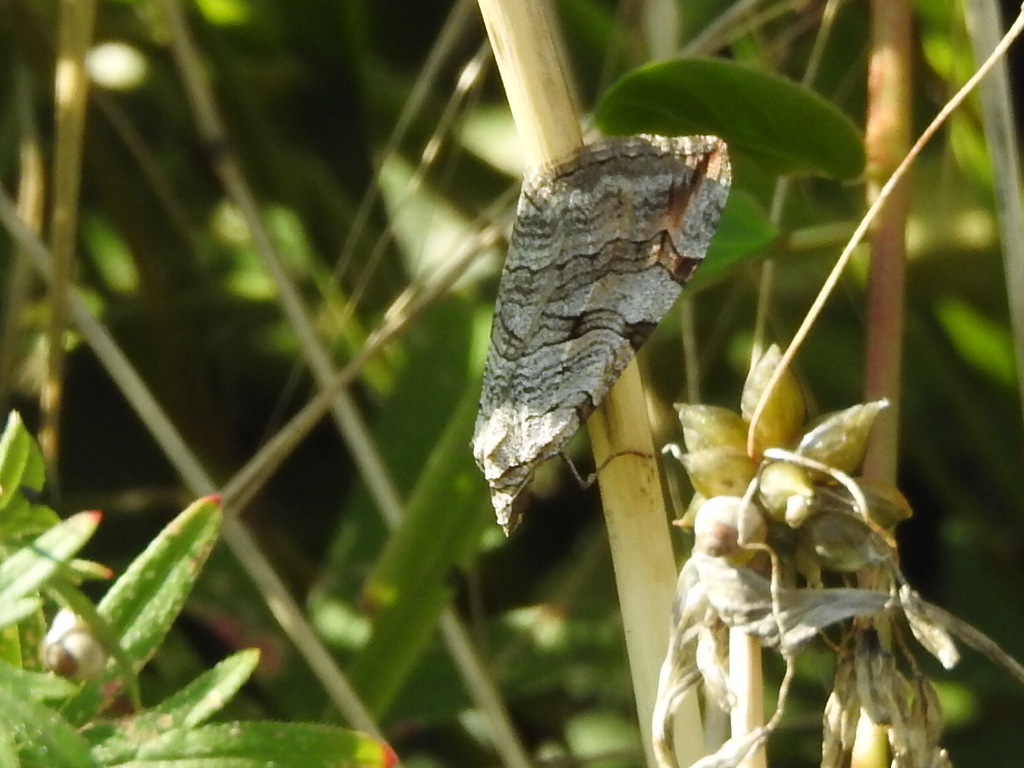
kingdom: Animalia
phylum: Arthropoda
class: Insecta
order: Lepidoptera
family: Geometridae
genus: Aplocera
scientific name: Aplocera plagiata
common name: Treble-bar
